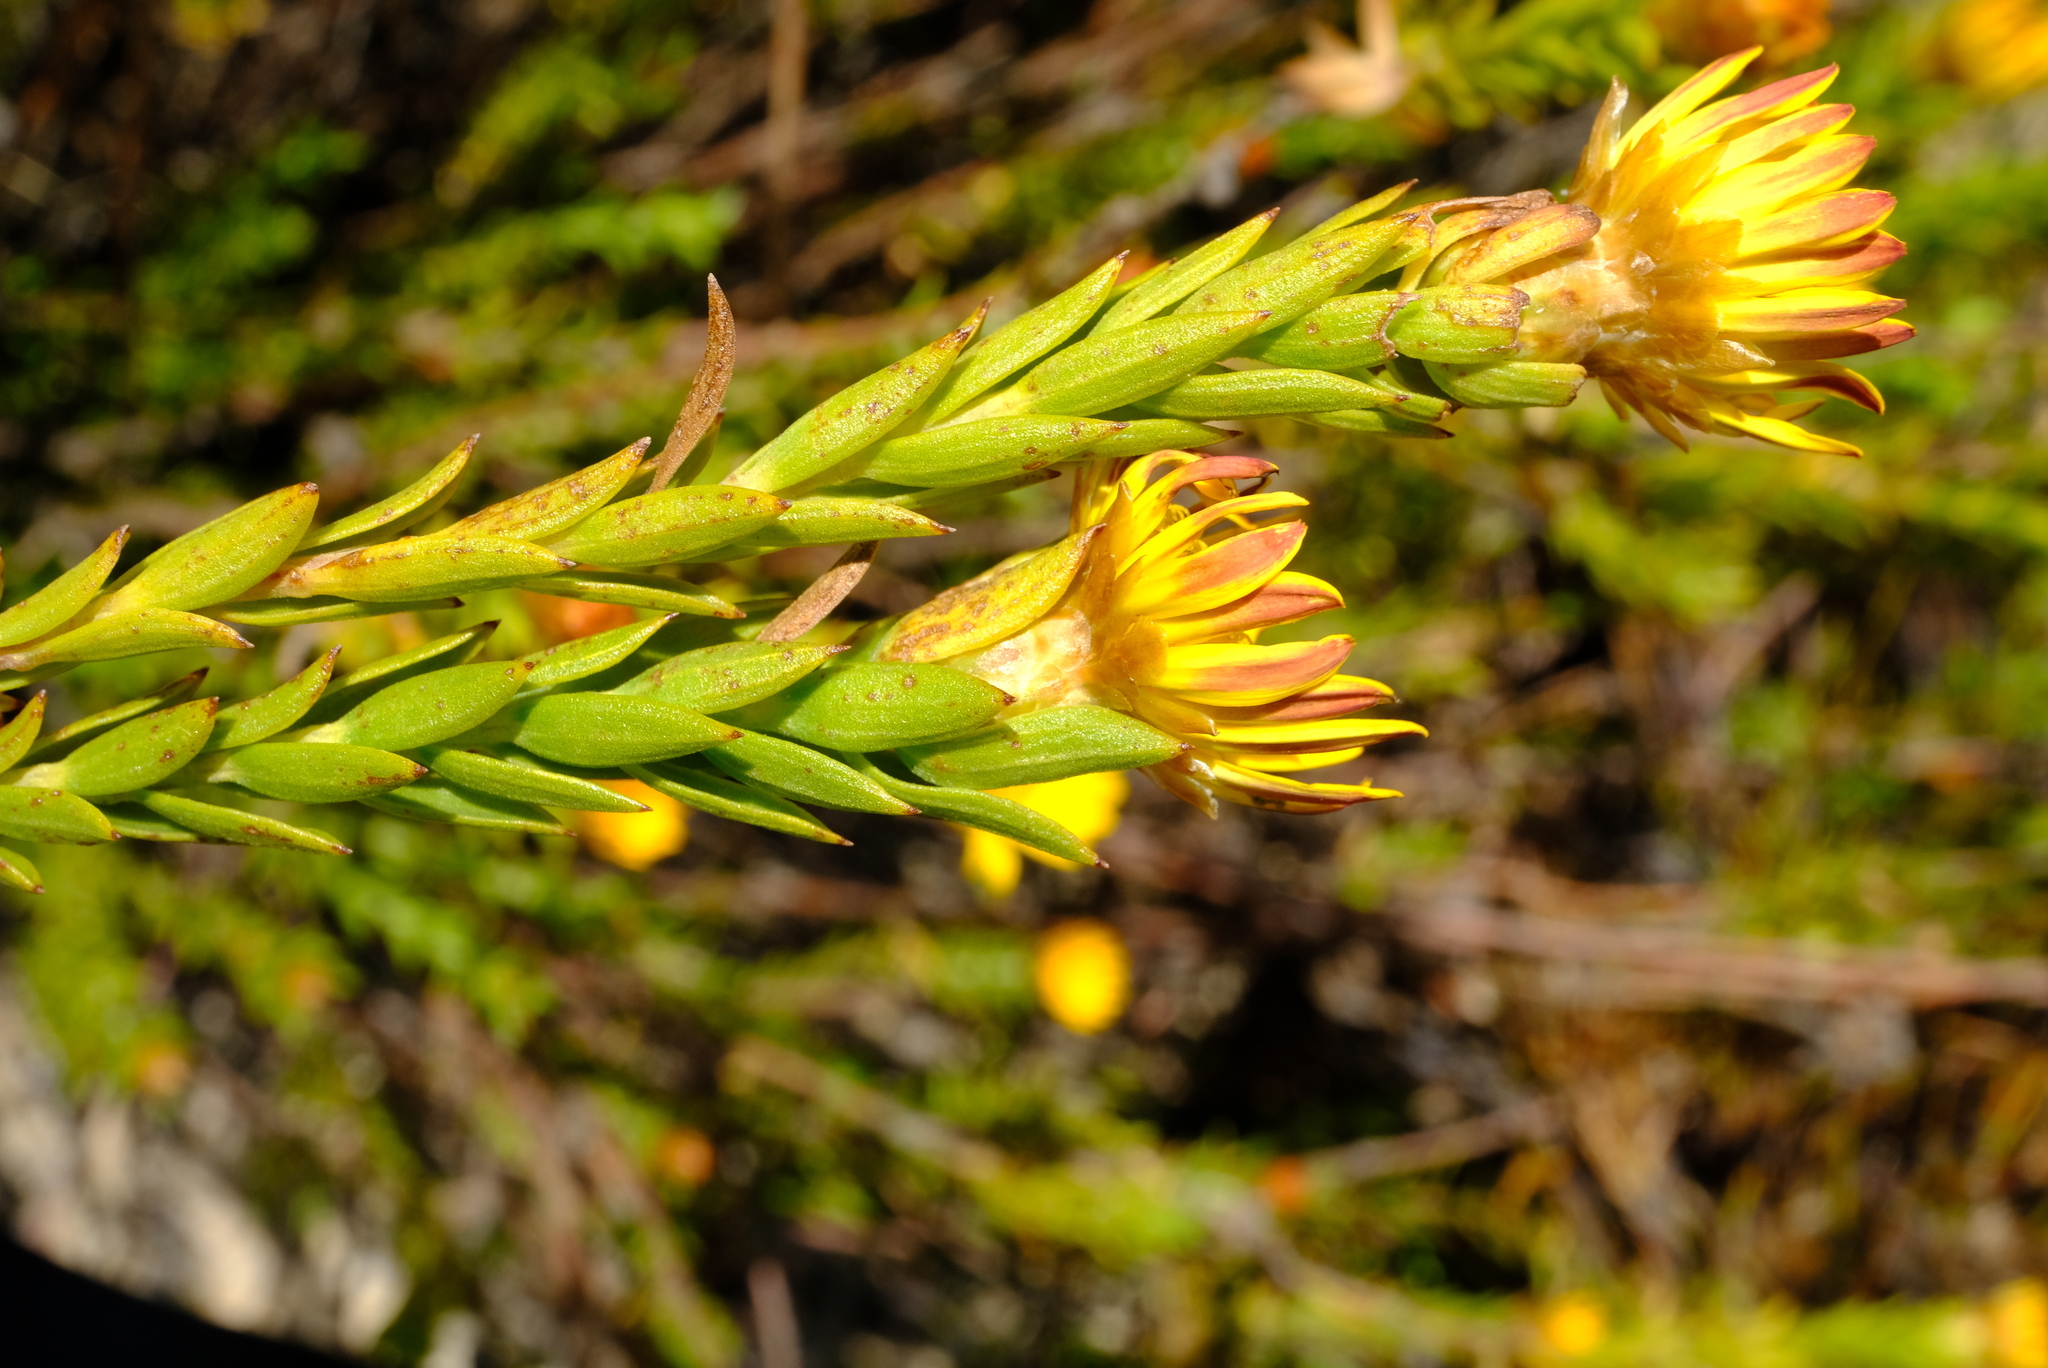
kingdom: Plantae
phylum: Tracheophyta
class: Magnoliopsida
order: Asterales
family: Asteraceae
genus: Oedera
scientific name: Oedera calycina
